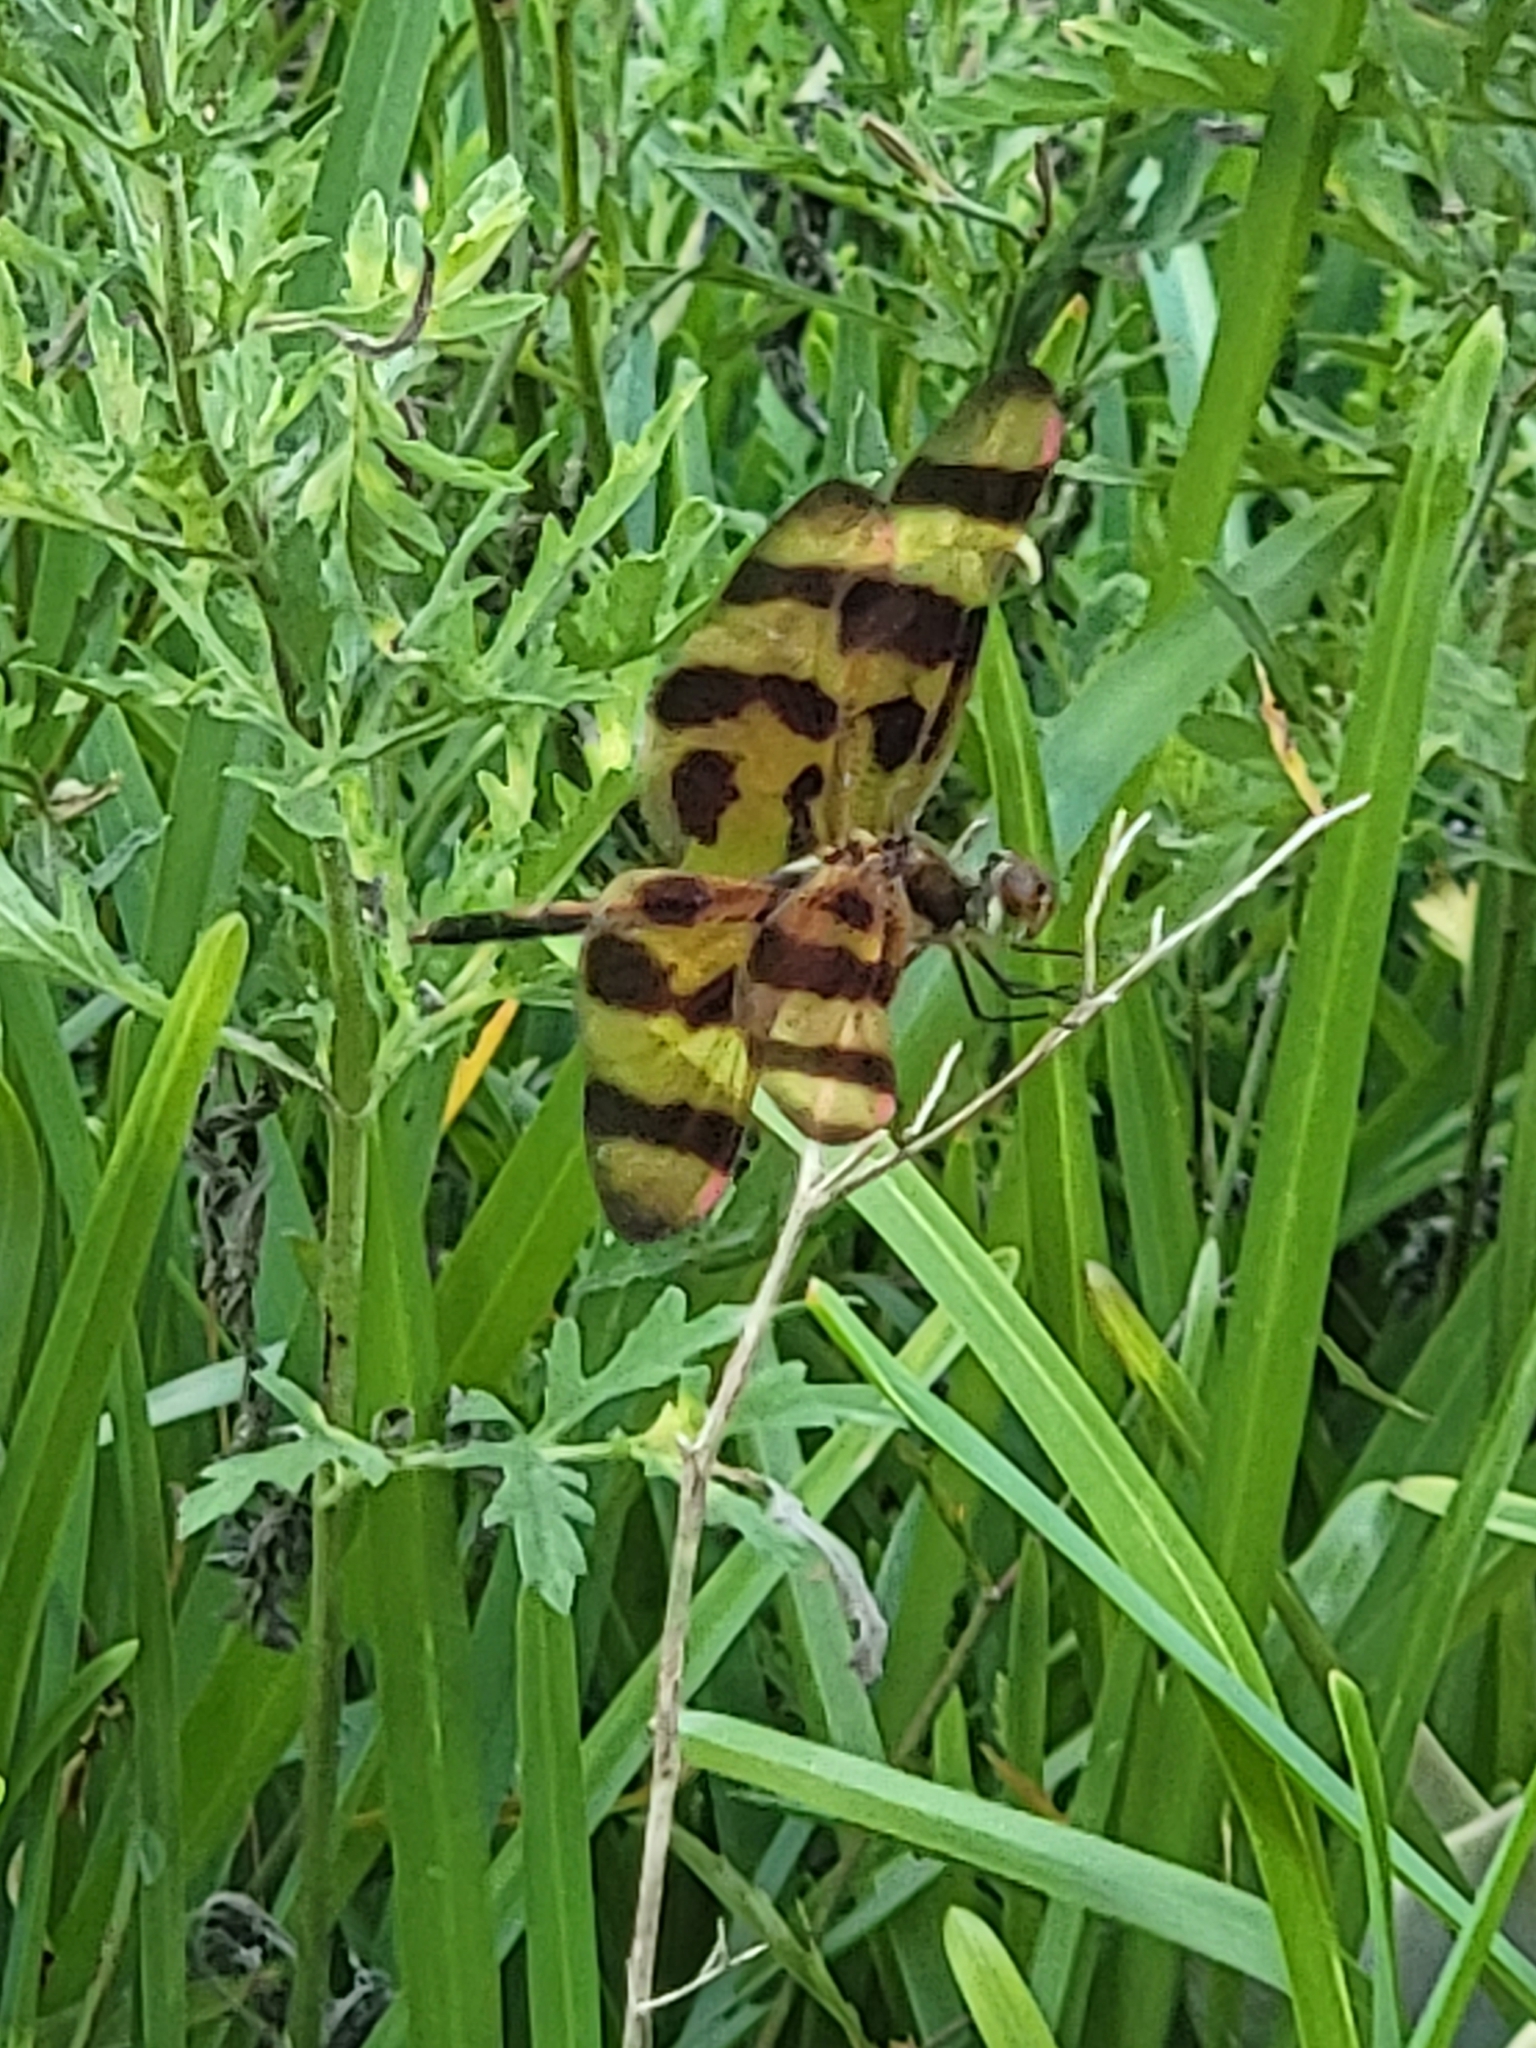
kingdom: Animalia
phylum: Arthropoda
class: Insecta
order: Odonata
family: Libellulidae
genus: Celithemis
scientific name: Celithemis eponina
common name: Halloween pennant
